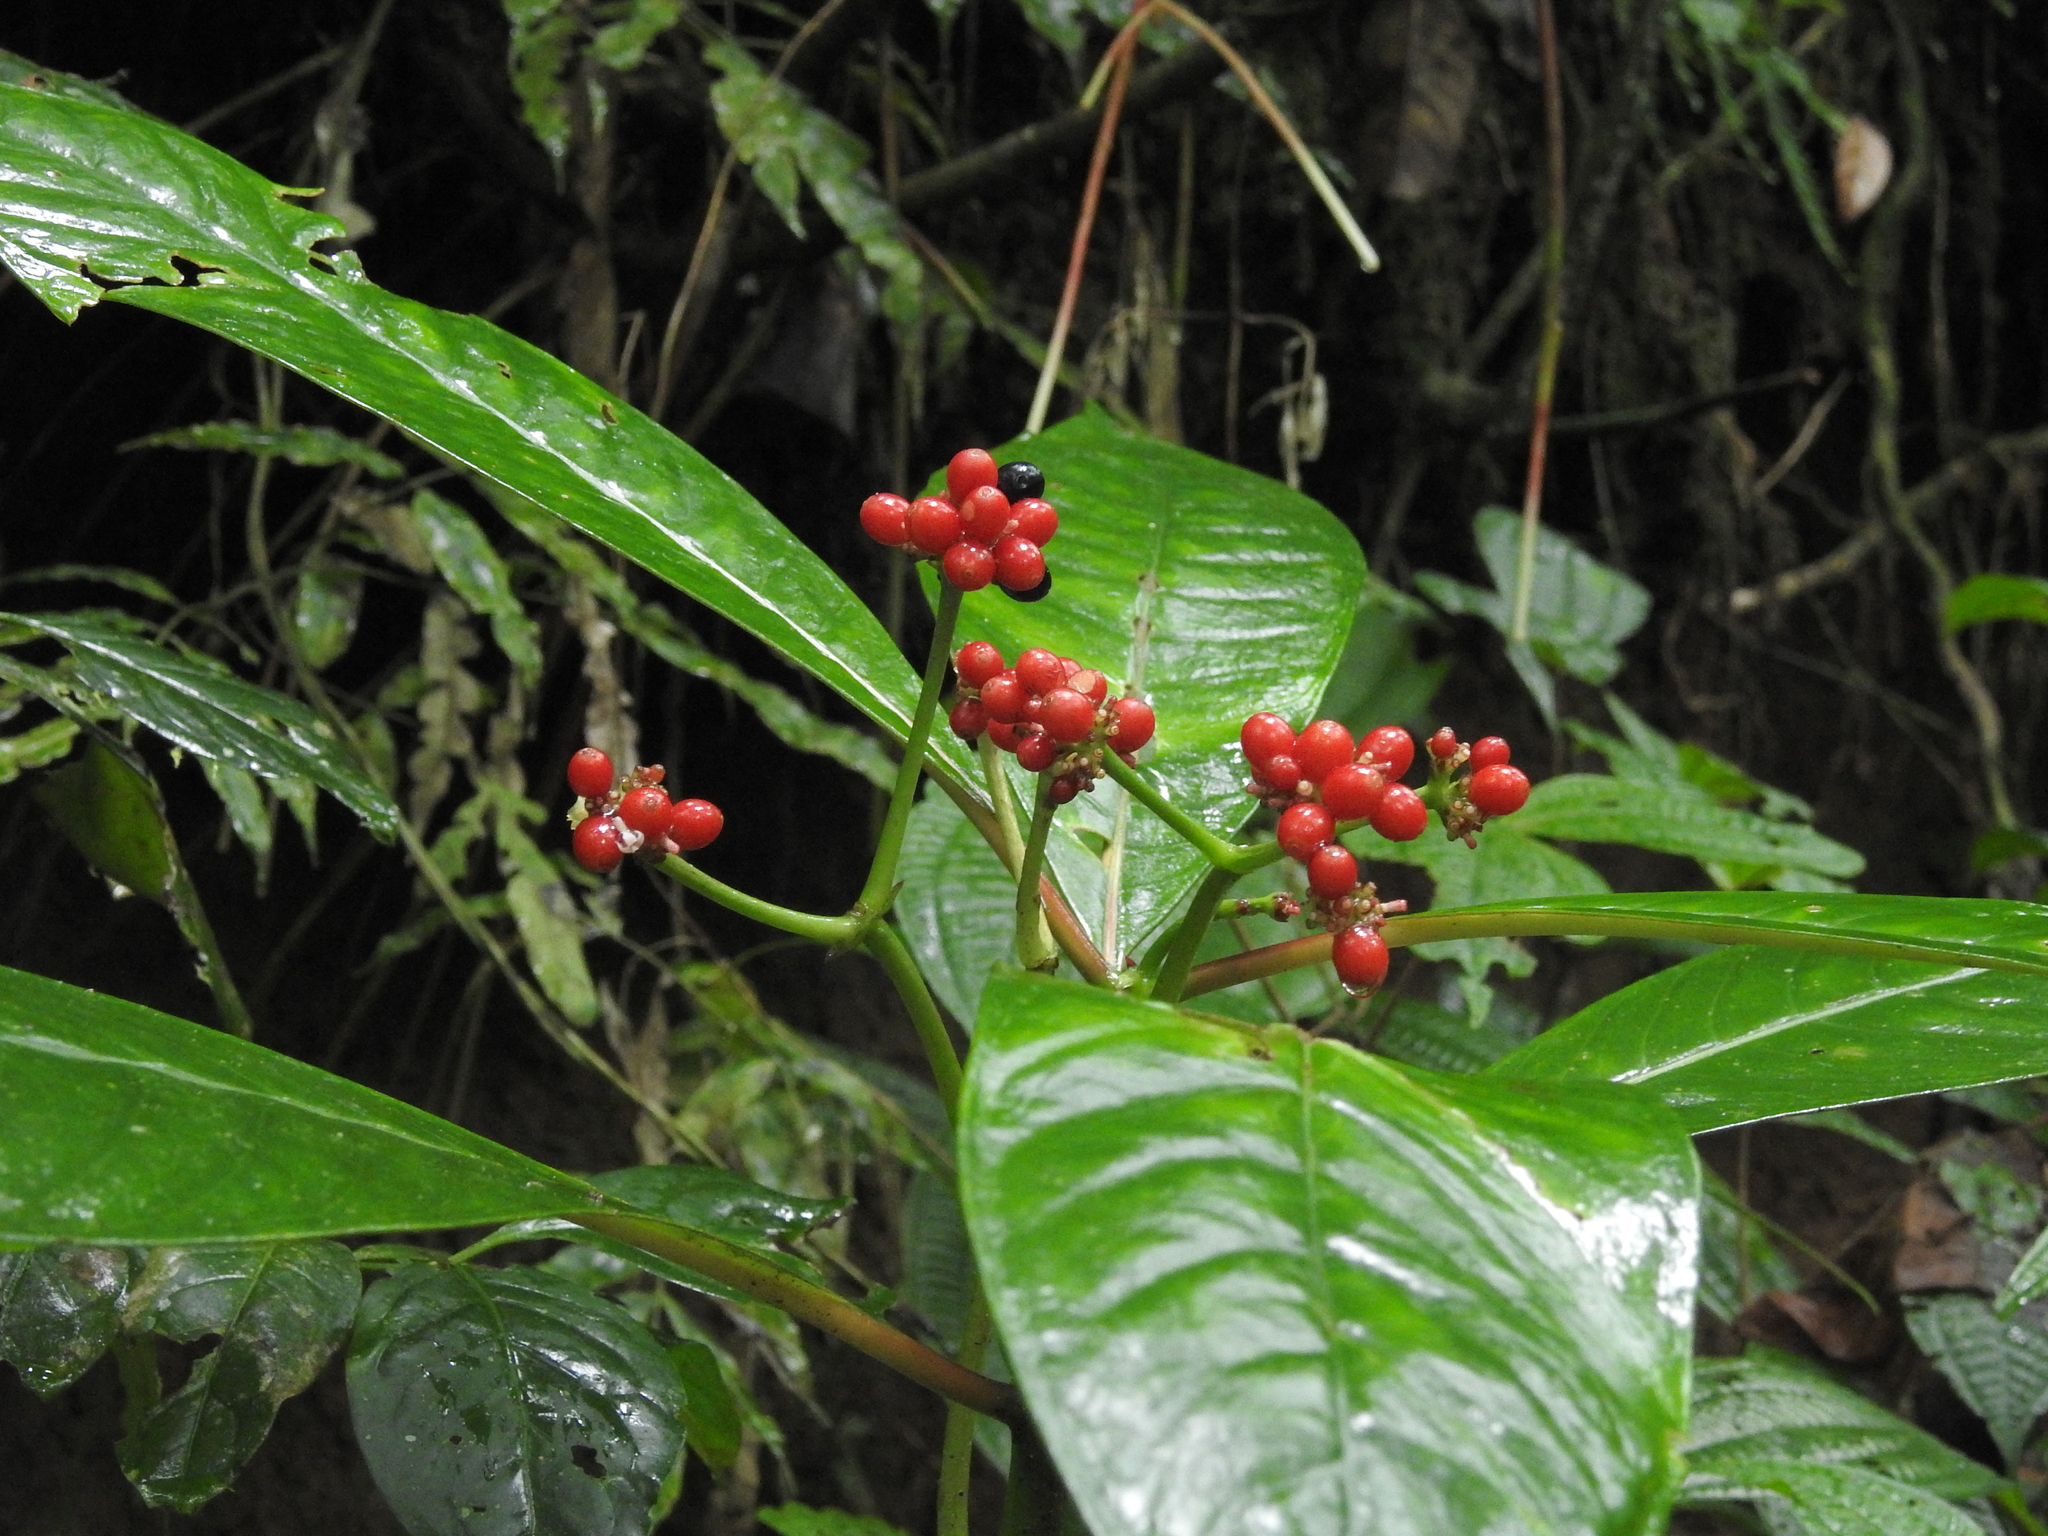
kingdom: Plantae
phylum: Tracheophyta
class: Magnoliopsida
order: Gentianales
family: Rubiaceae
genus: Notopleura
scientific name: Notopleura uliginosa
